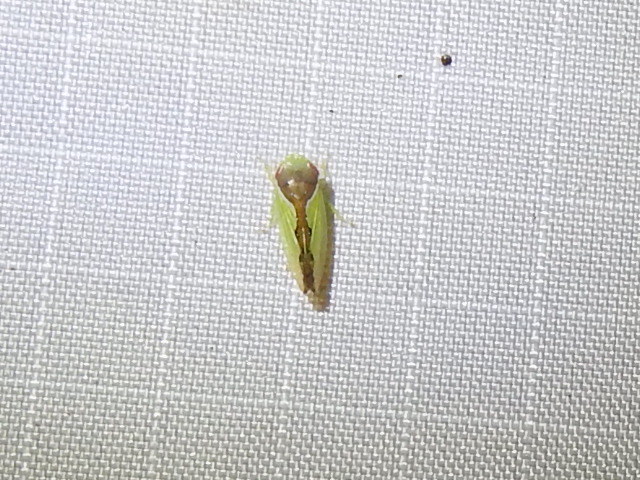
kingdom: Animalia
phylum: Arthropoda
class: Insecta
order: Hemiptera
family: Cicadellidae
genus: Omansobara ing
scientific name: Omansobara ing Omansobara palliolata
